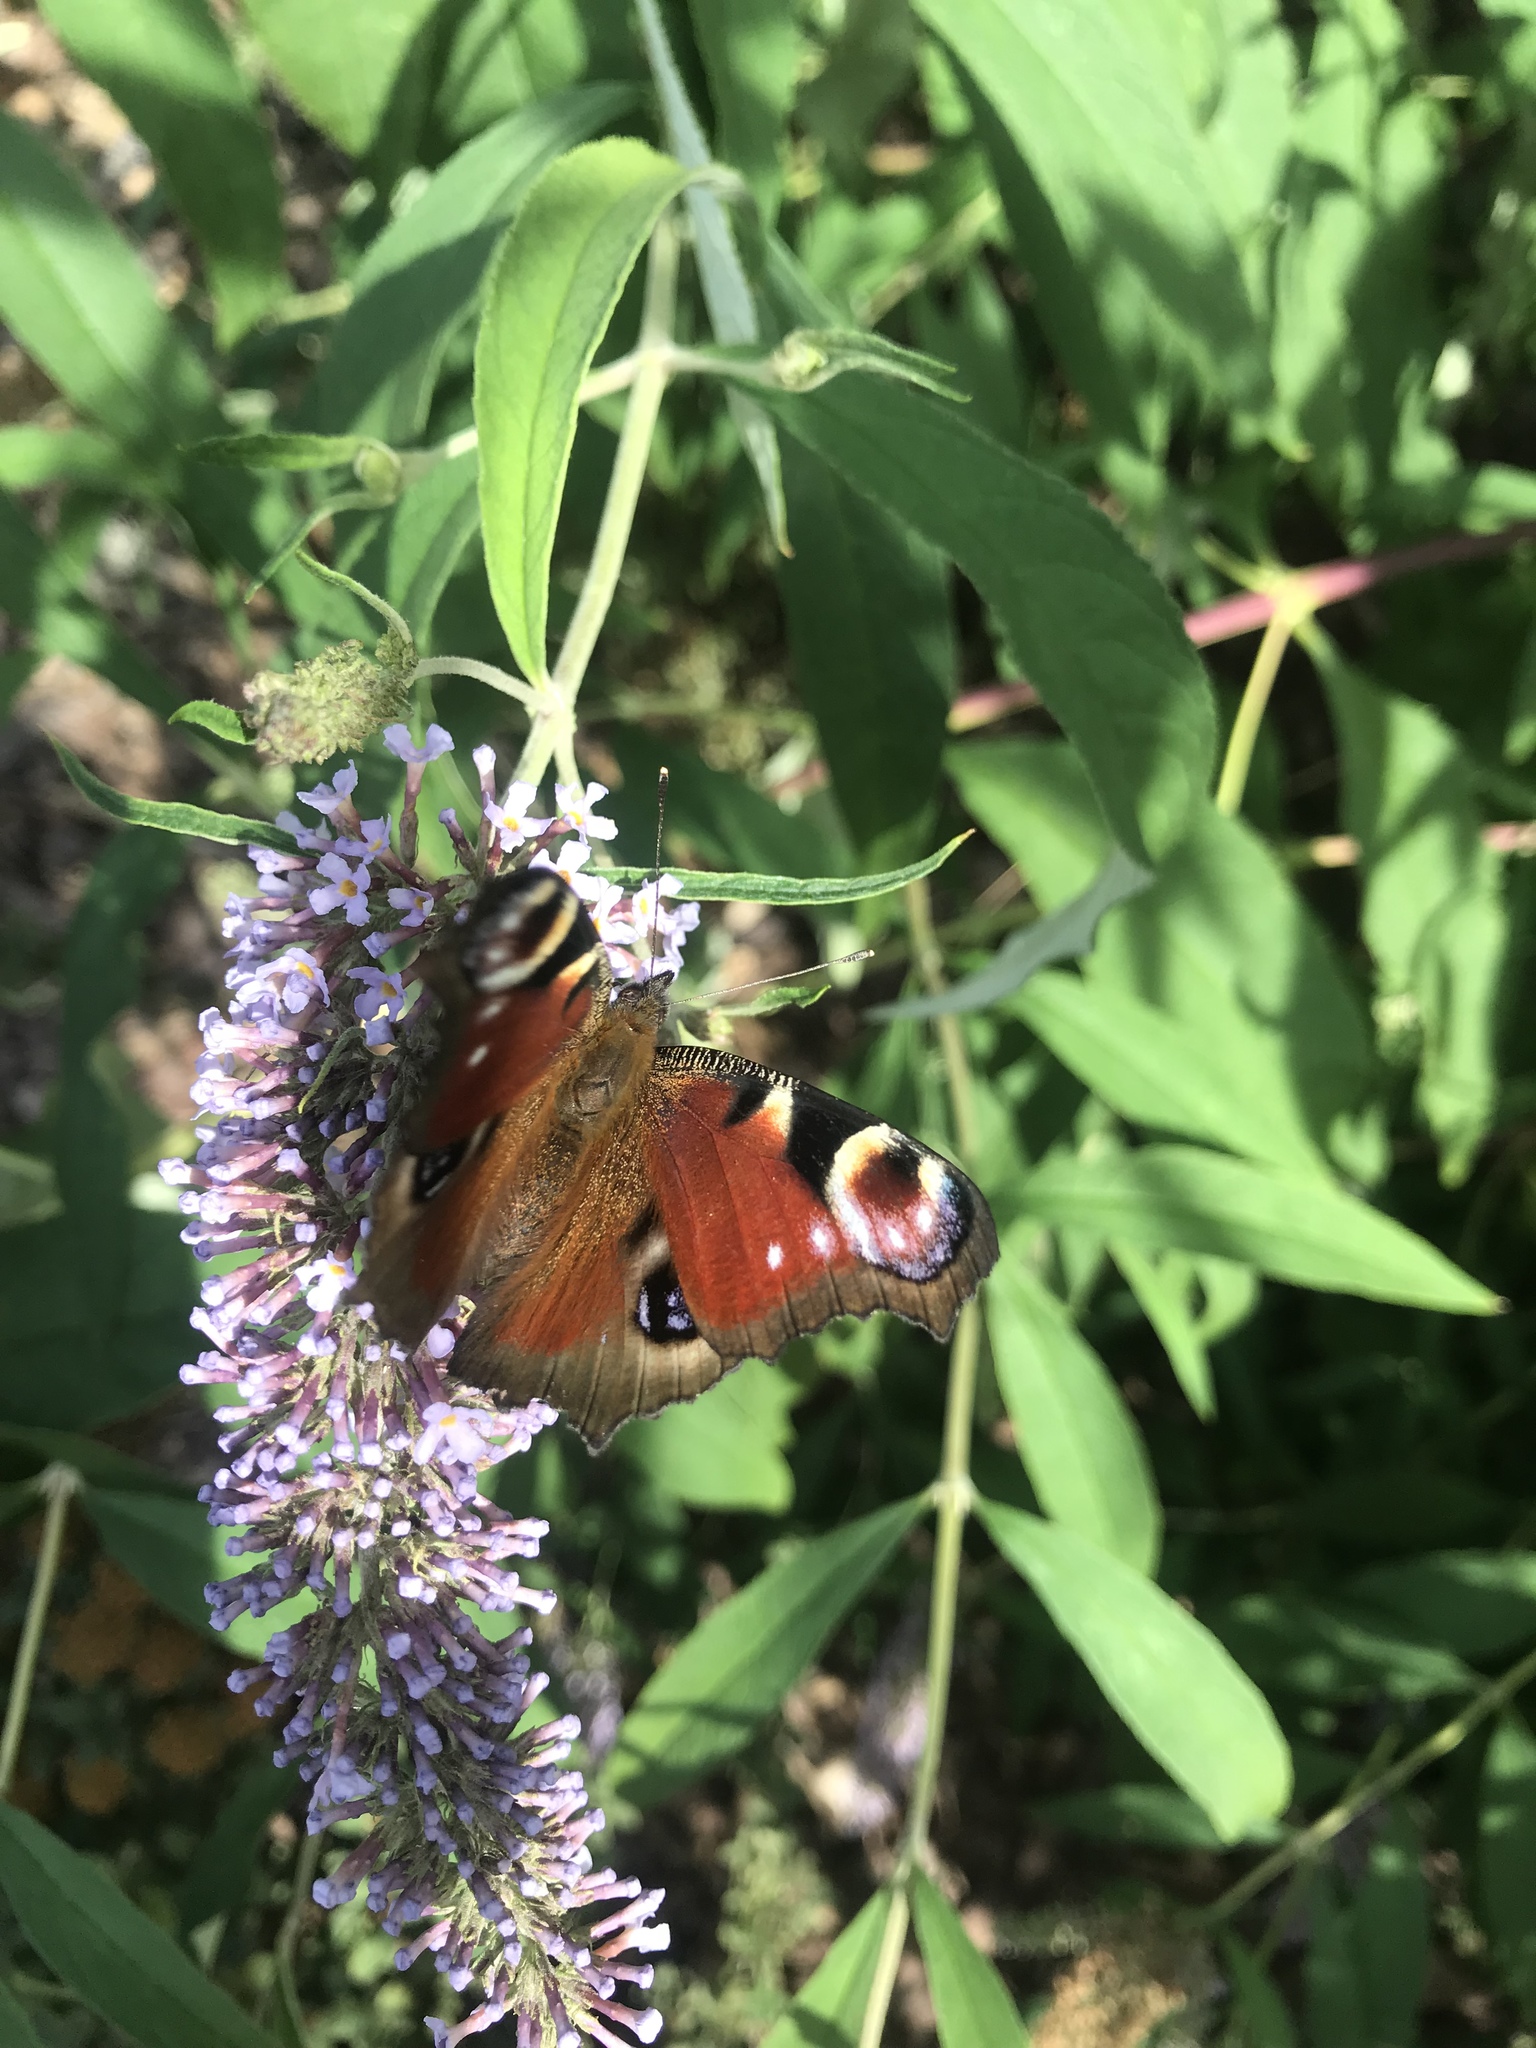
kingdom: Animalia
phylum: Arthropoda
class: Insecta
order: Lepidoptera
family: Nymphalidae
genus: Aglais
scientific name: Aglais io
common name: Peacock
